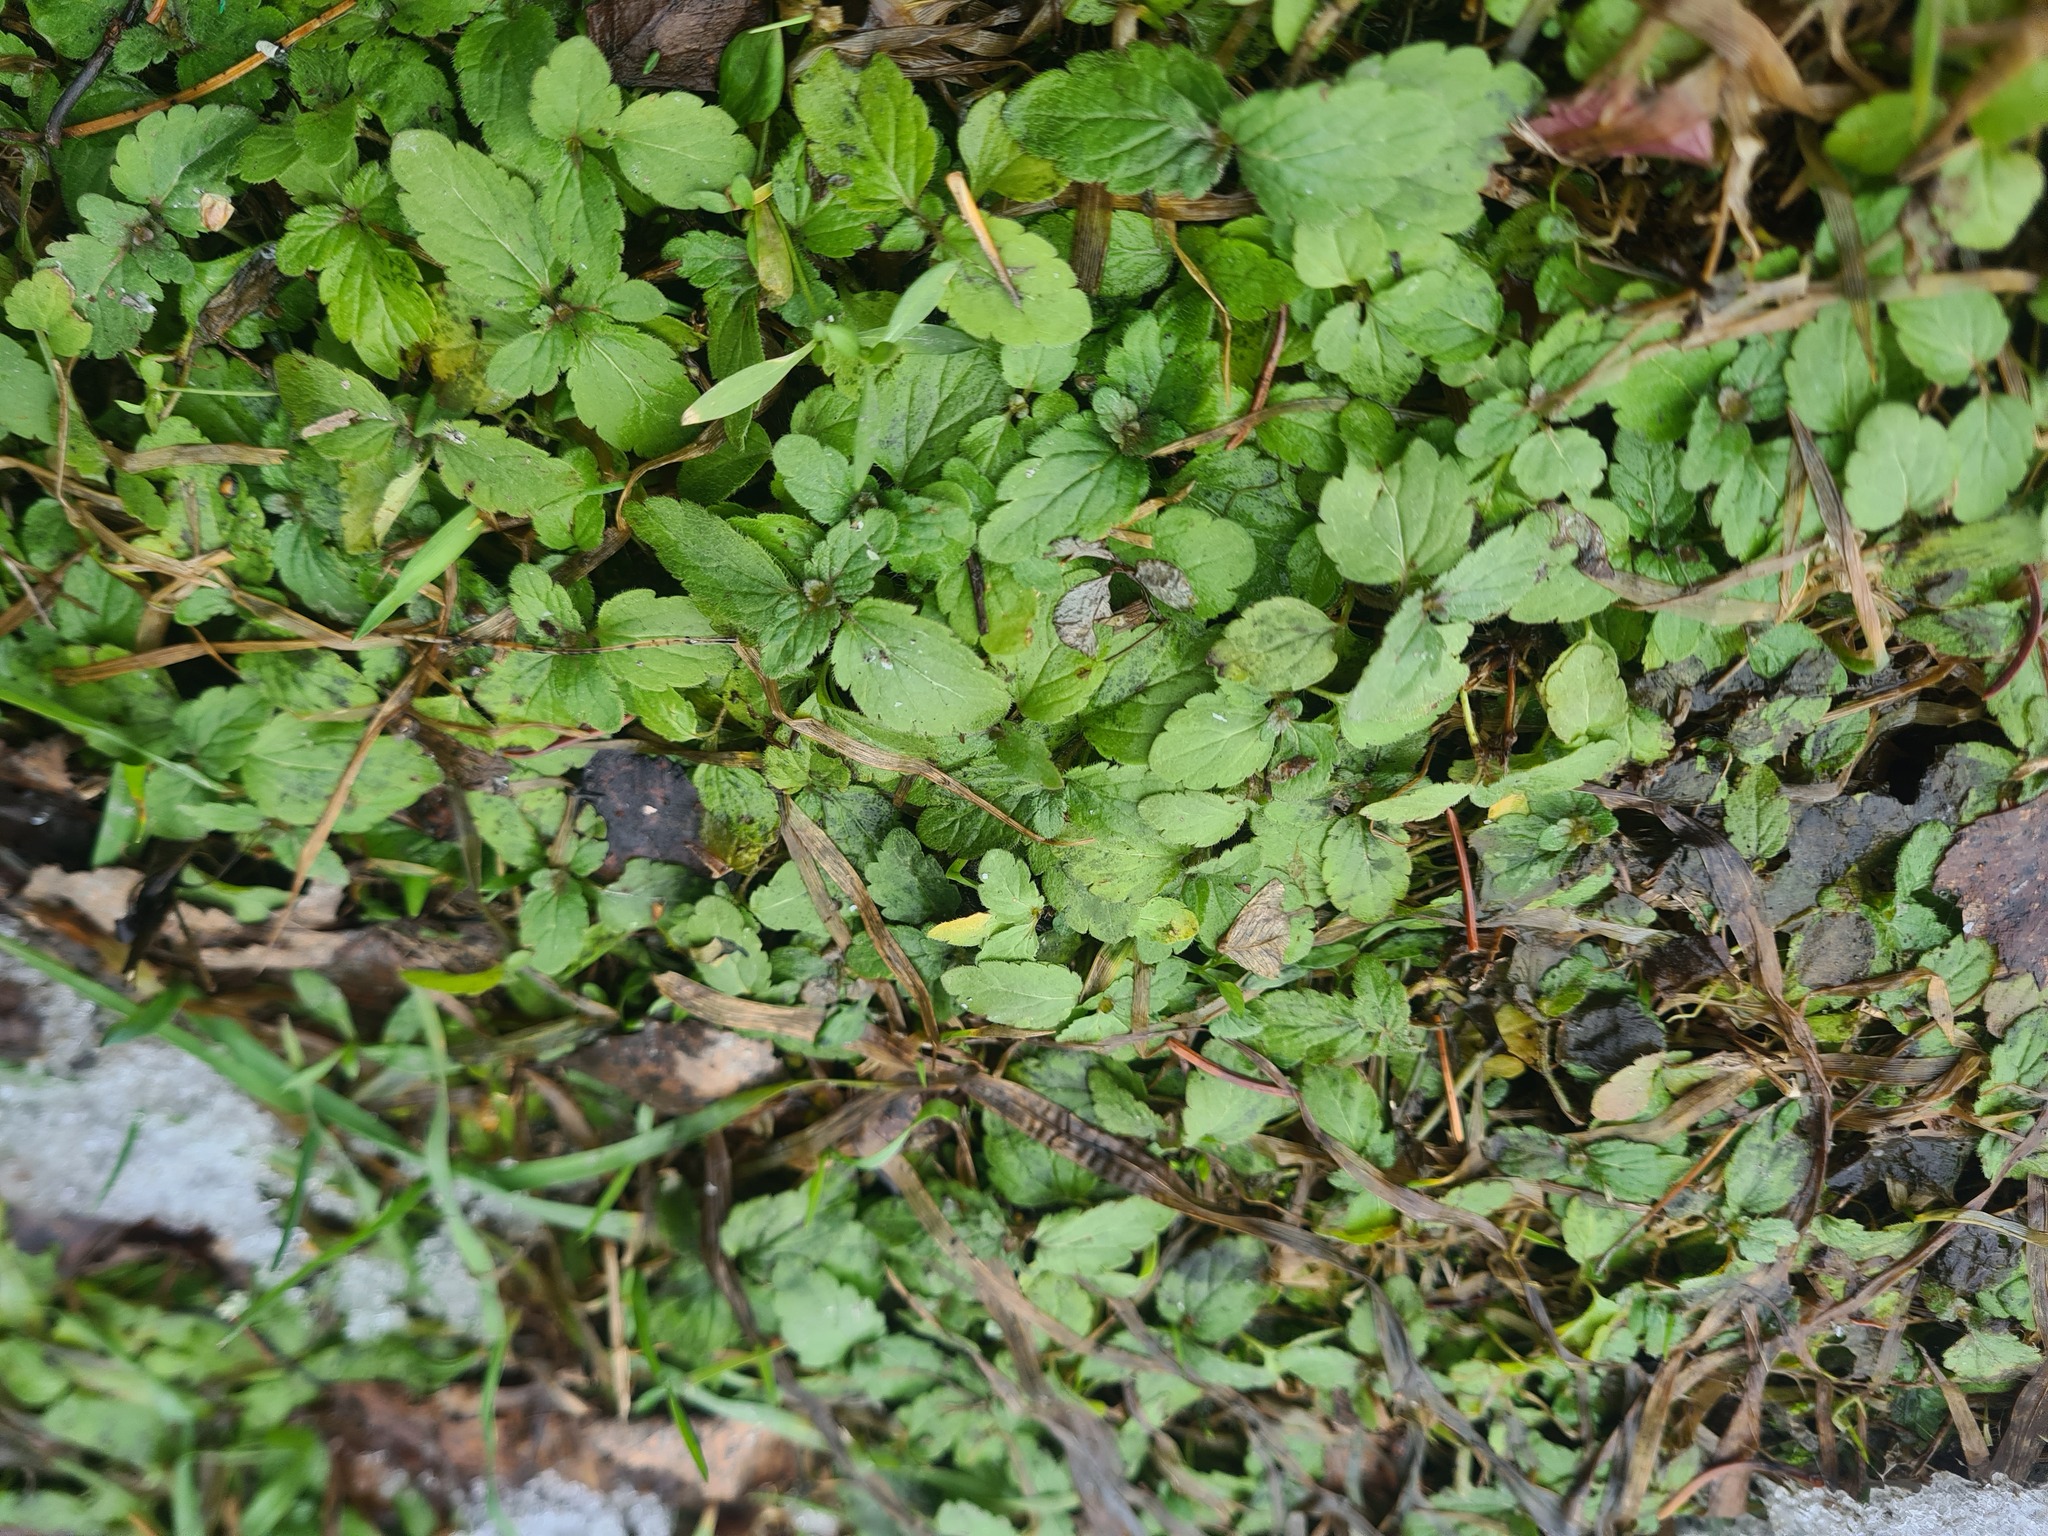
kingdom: Plantae
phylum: Tracheophyta
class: Magnoliopsida
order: Lamiales
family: Plantaginaceae
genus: Veronica
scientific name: Veronica chamaedrys
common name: Germander speedwell
